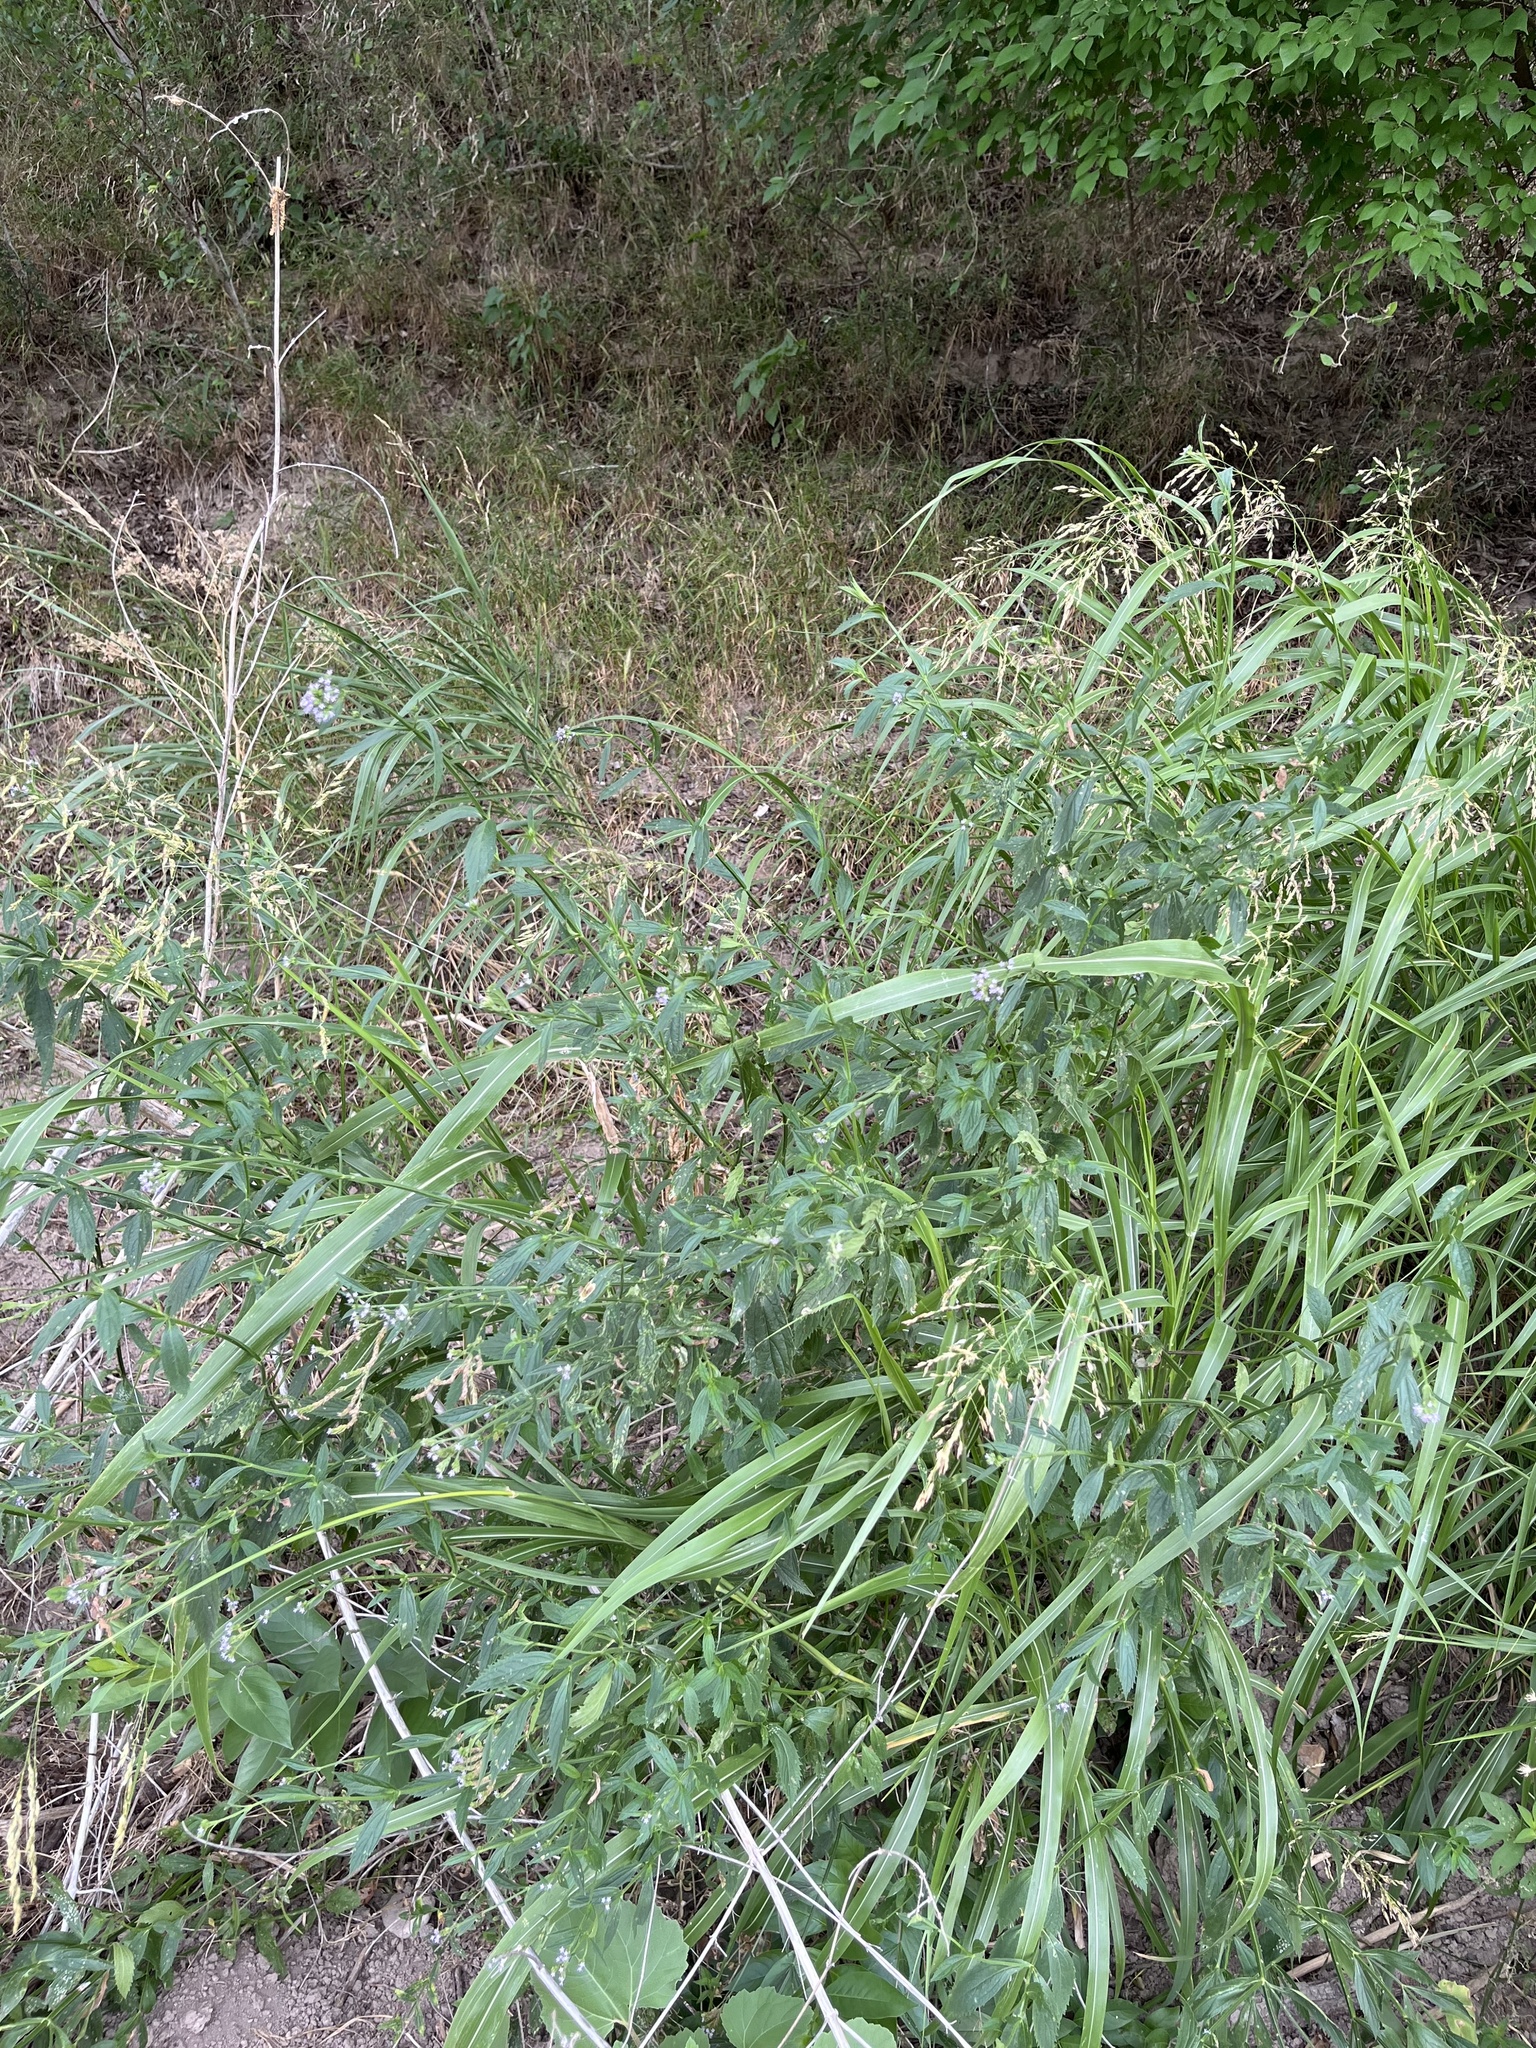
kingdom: Plantae
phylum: Tracheophyta
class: Magnoliopsida
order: Lamiales
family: Verbenaceae
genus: Verbena
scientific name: Verbena brasiliensis
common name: Brazilian vervain
